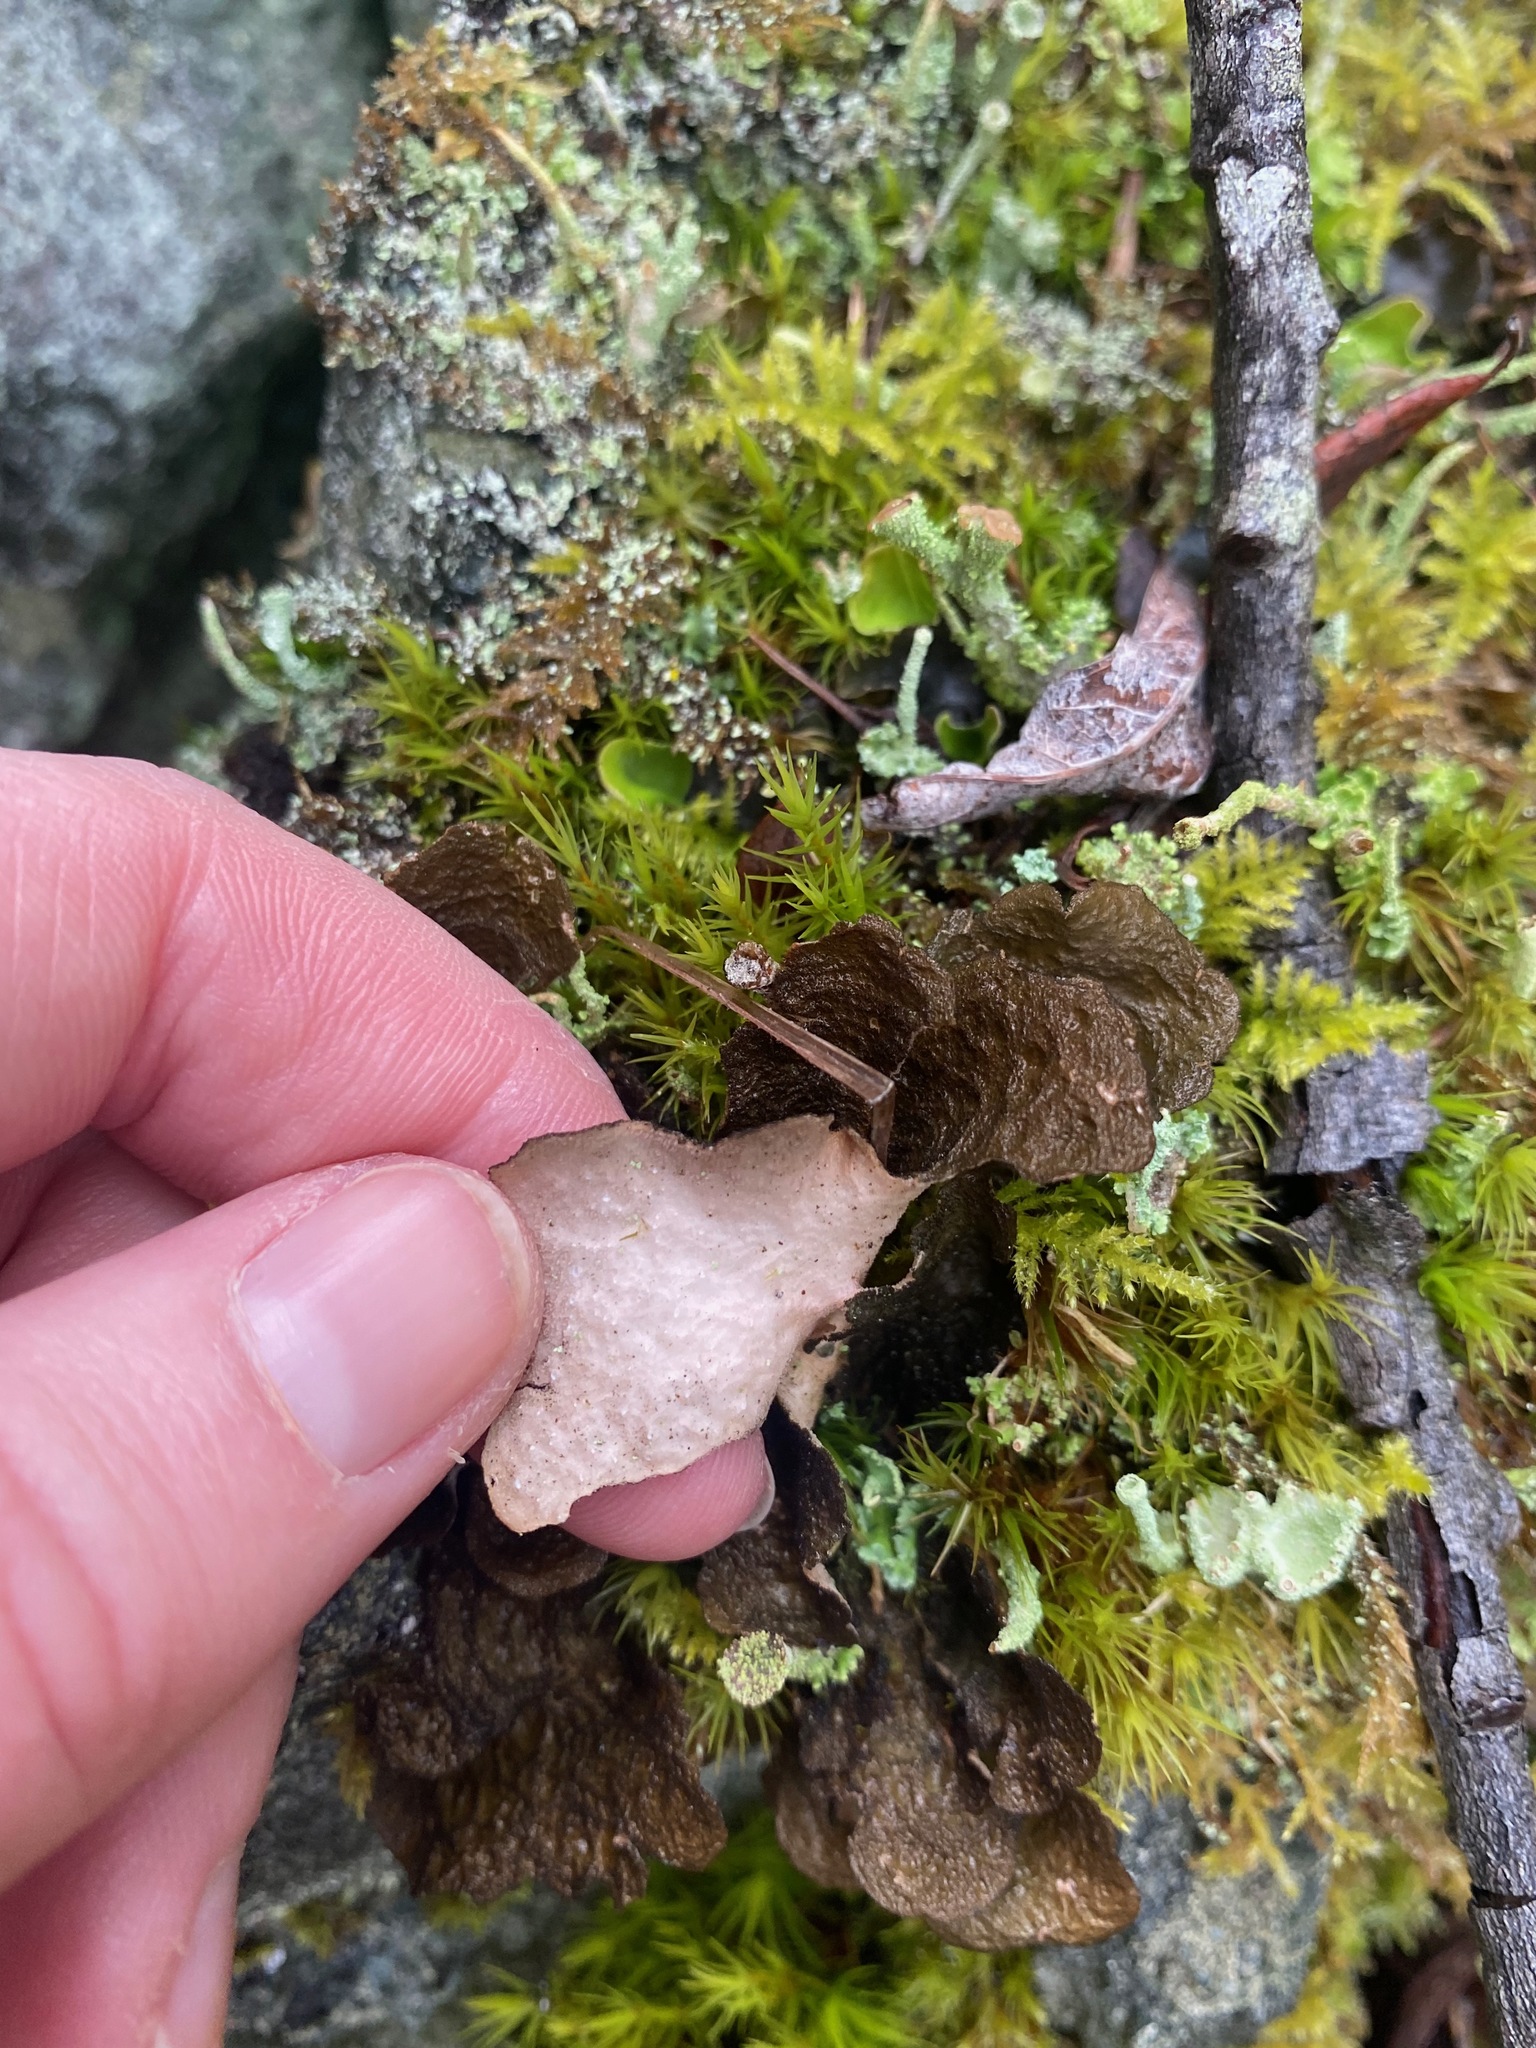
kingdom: Fungi
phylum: Ascomycota
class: Lecanoromycetes
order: Peltigerales
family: Lobariaceae
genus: Sticta
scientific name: Sticta
